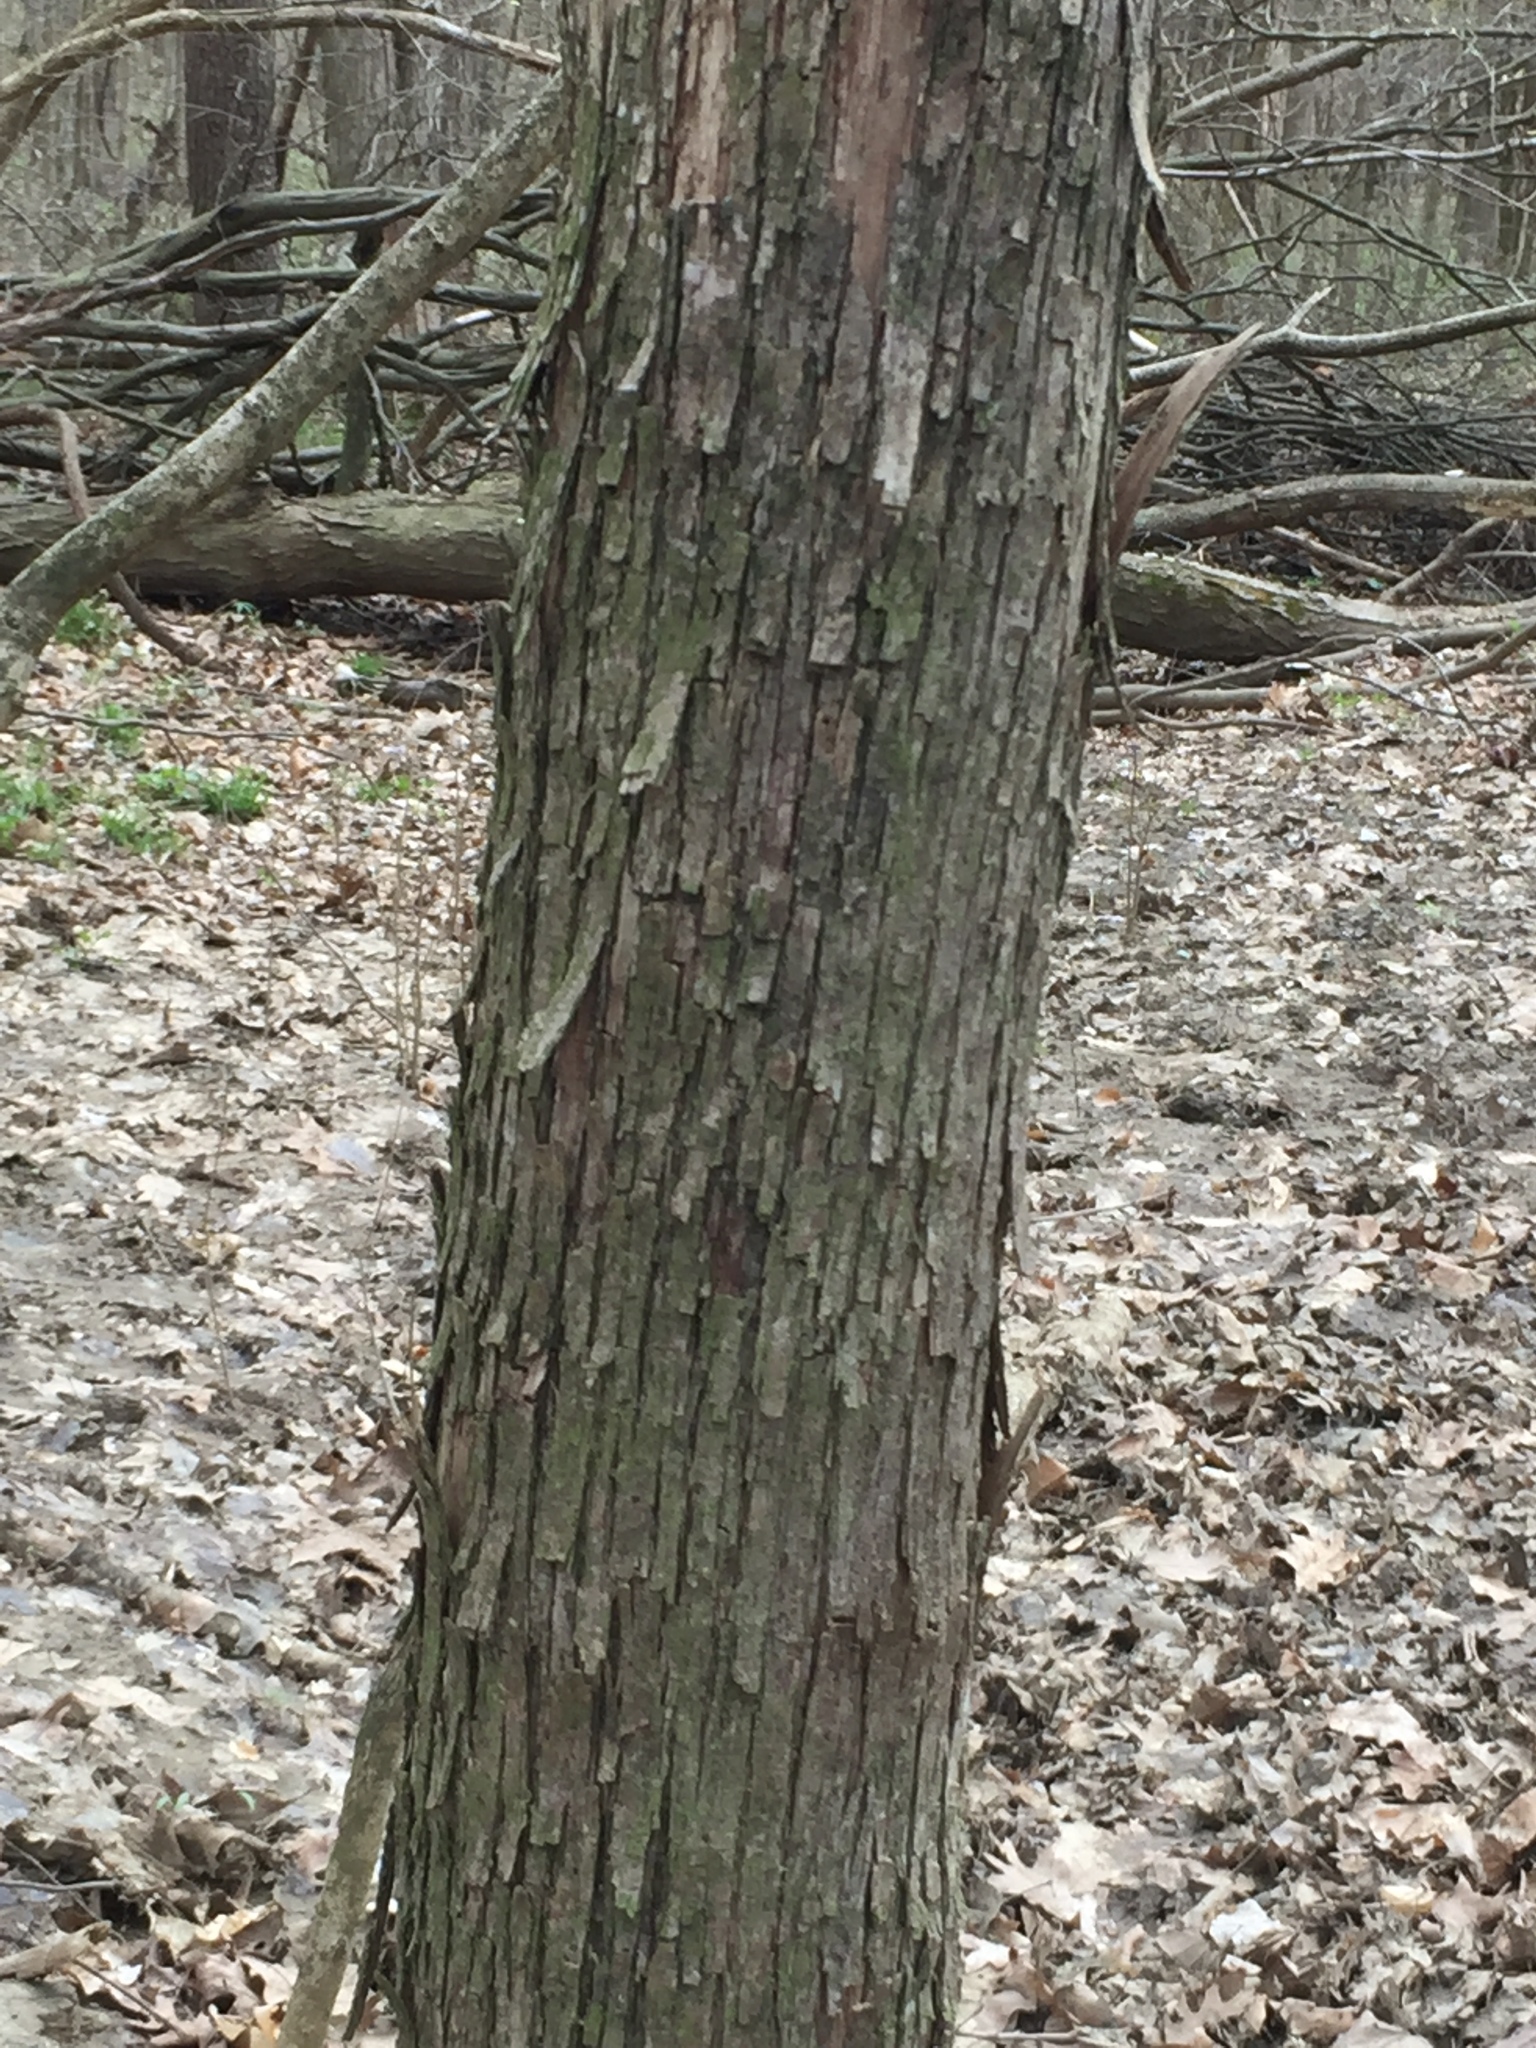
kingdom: Plantae
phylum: Tracheophyta
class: Magnoliopsida
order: Fagales
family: Betulaceae
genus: Ostrya
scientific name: Ostrya virginiana
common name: Ironwood
